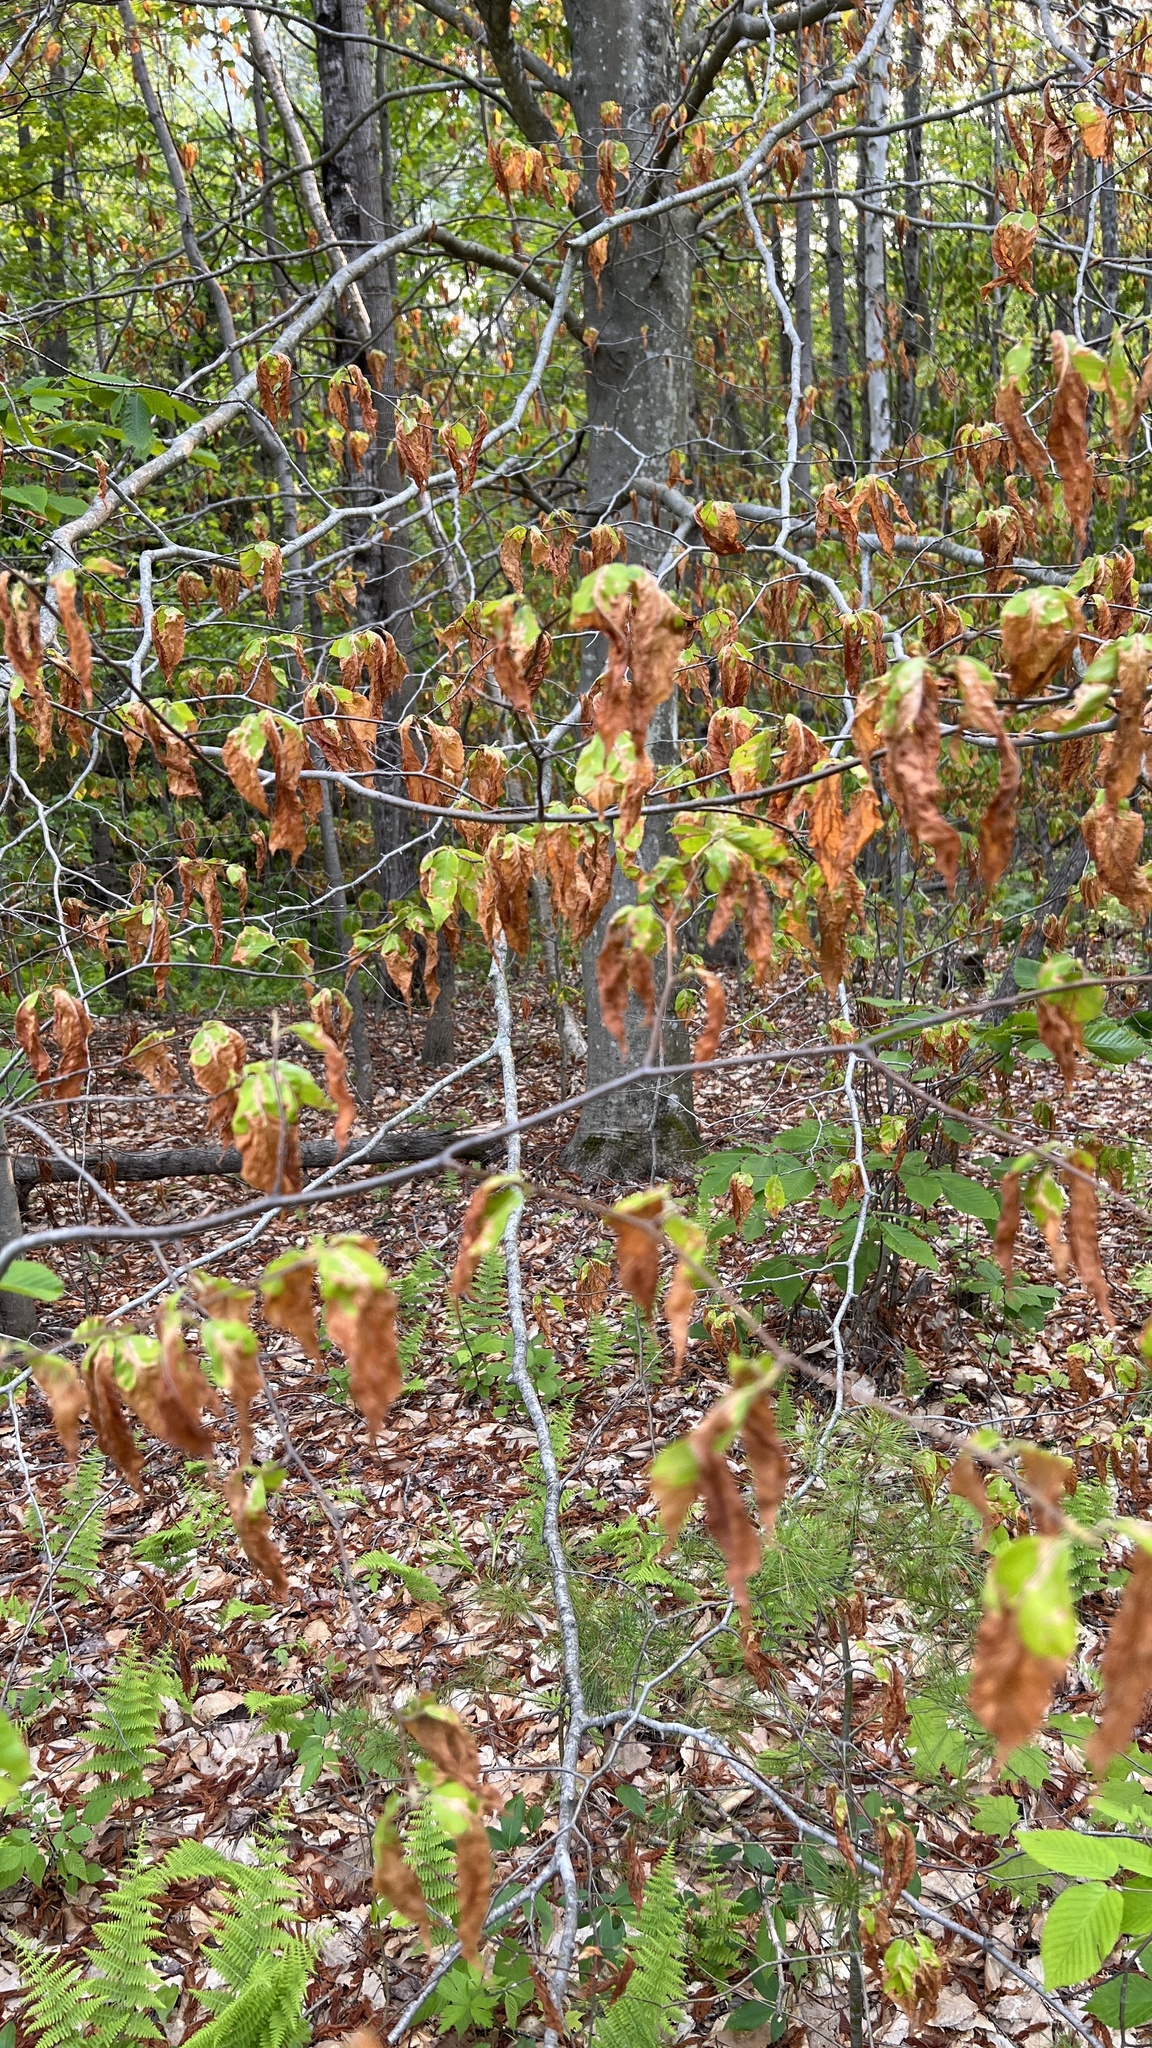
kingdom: Plantae
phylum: Tracheophyta
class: Magnoliopsida
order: Fagales
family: Fagaceae
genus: Fagus
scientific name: Fagus grandifolia
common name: American beech
